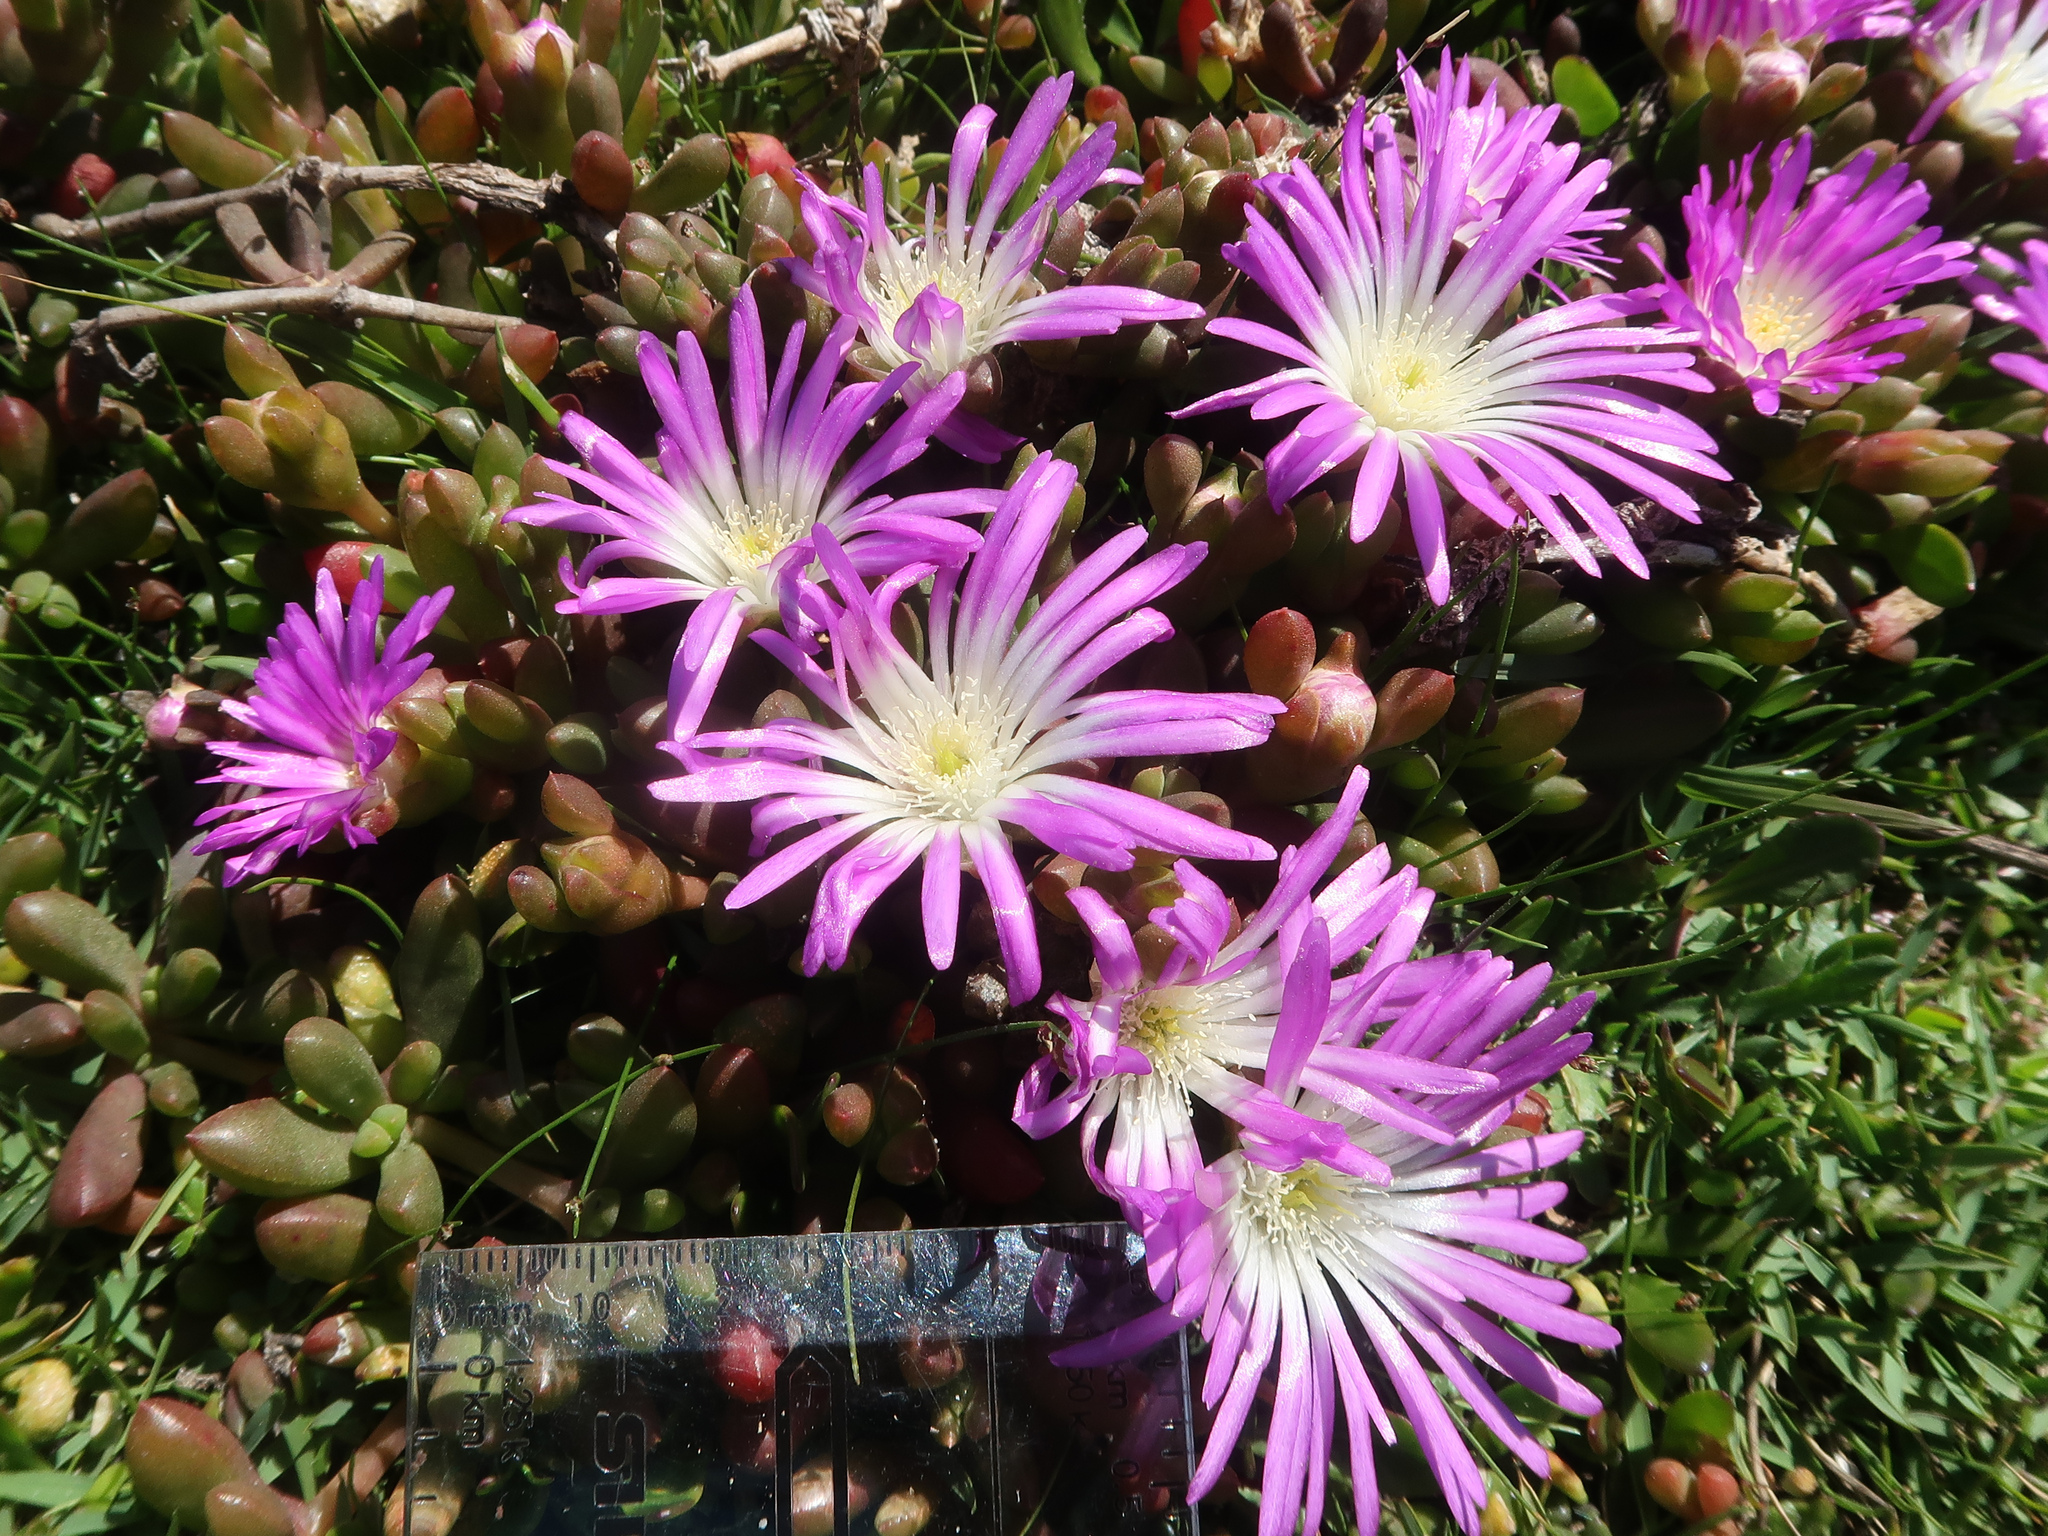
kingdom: Plantae
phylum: Tracheophyta
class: Magnoliopsida
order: Caryophyllales
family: Aizoaceae
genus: Disphyma
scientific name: Disphyma clavellatum
